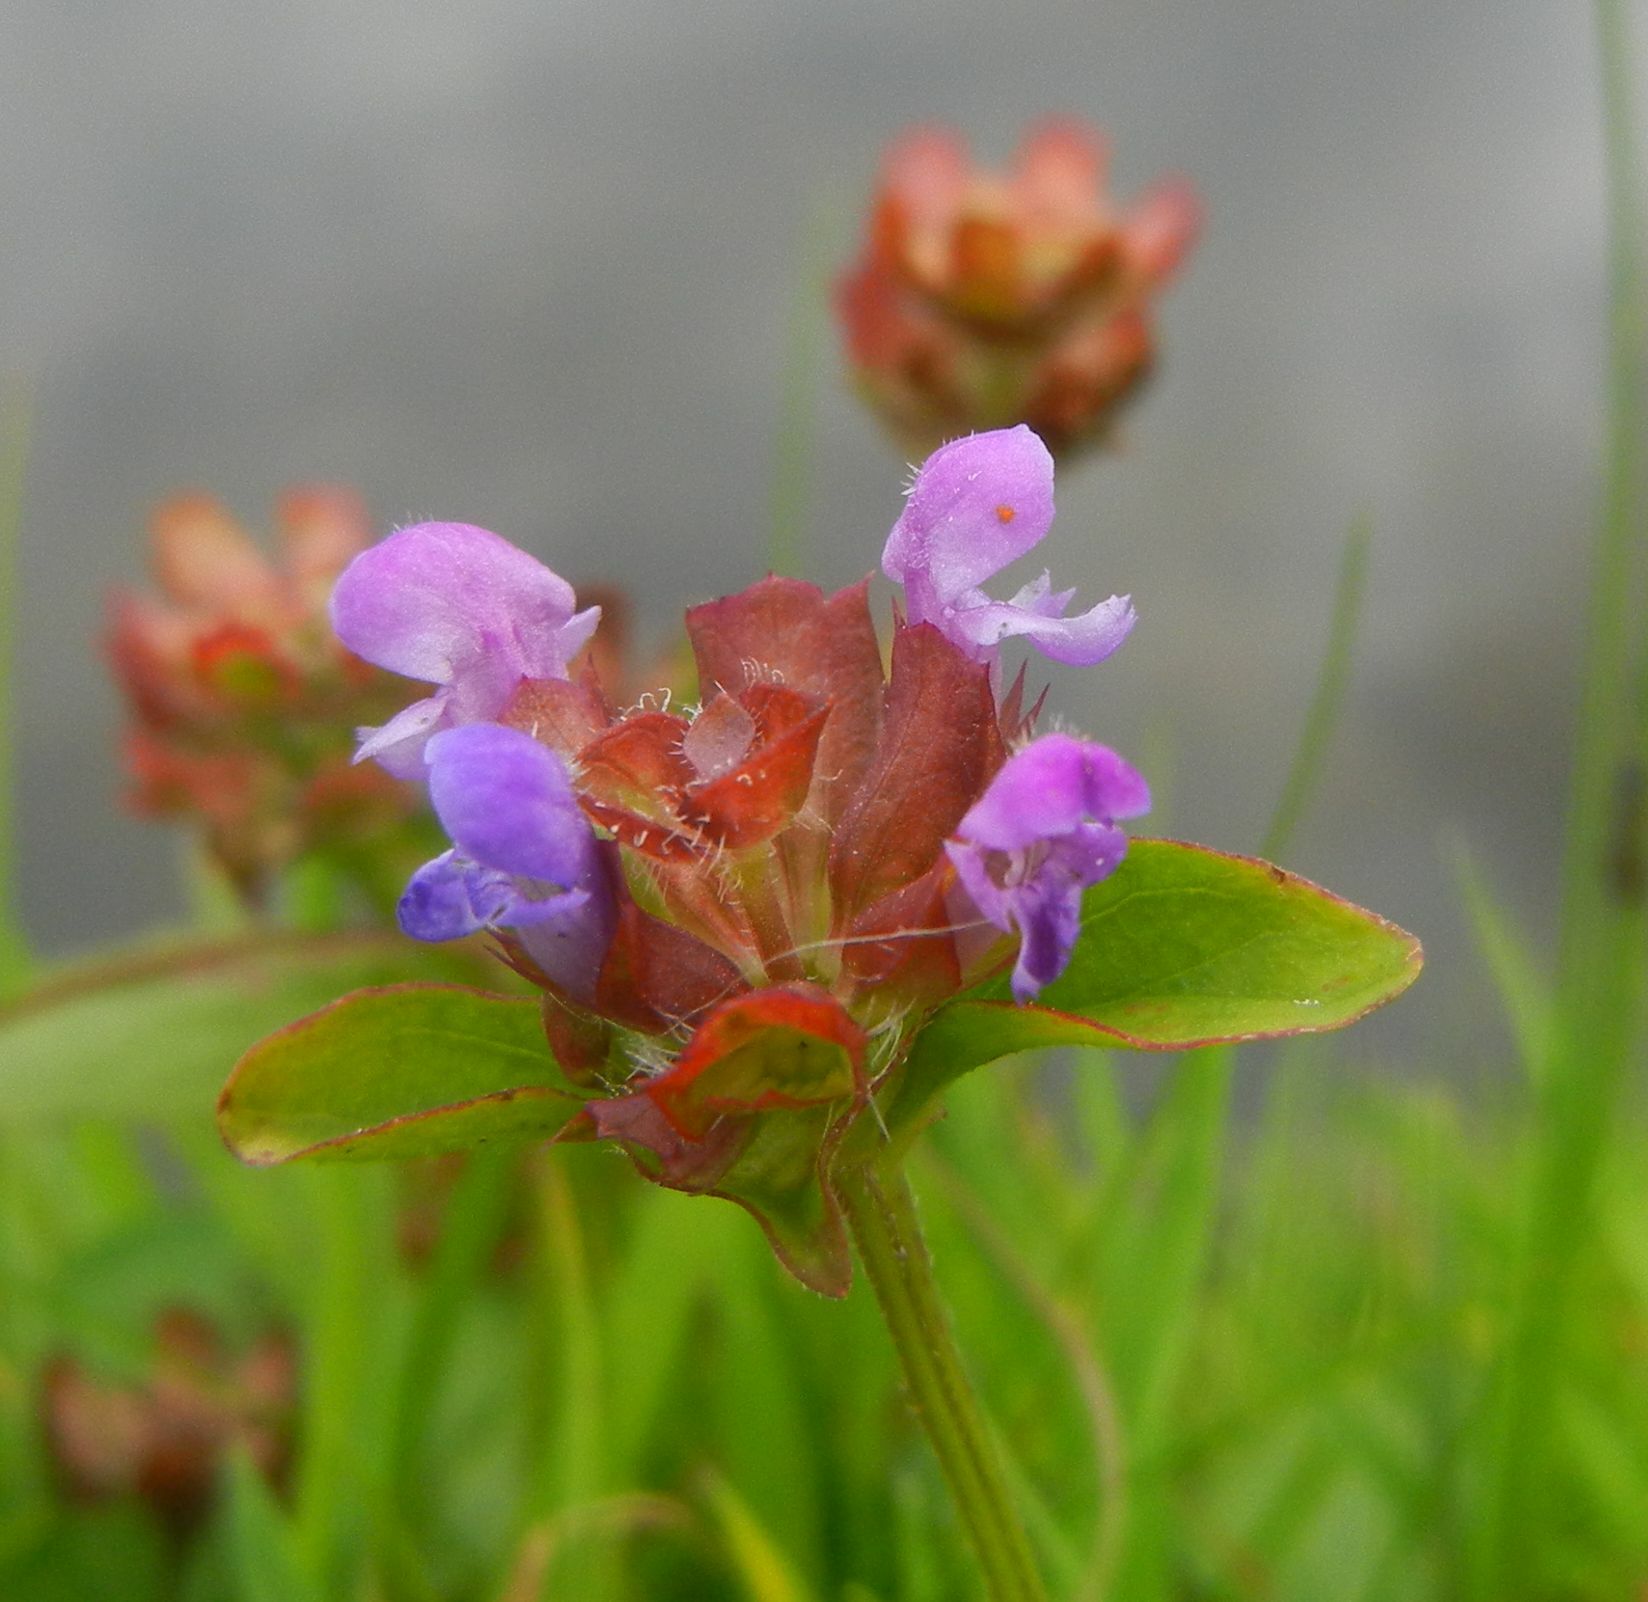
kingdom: Plantae
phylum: Tracheophyta
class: Magnoliopsida
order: Lamiales
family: Lamiaceae
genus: Prunella
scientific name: Prunella vulgaris
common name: Heal-all
